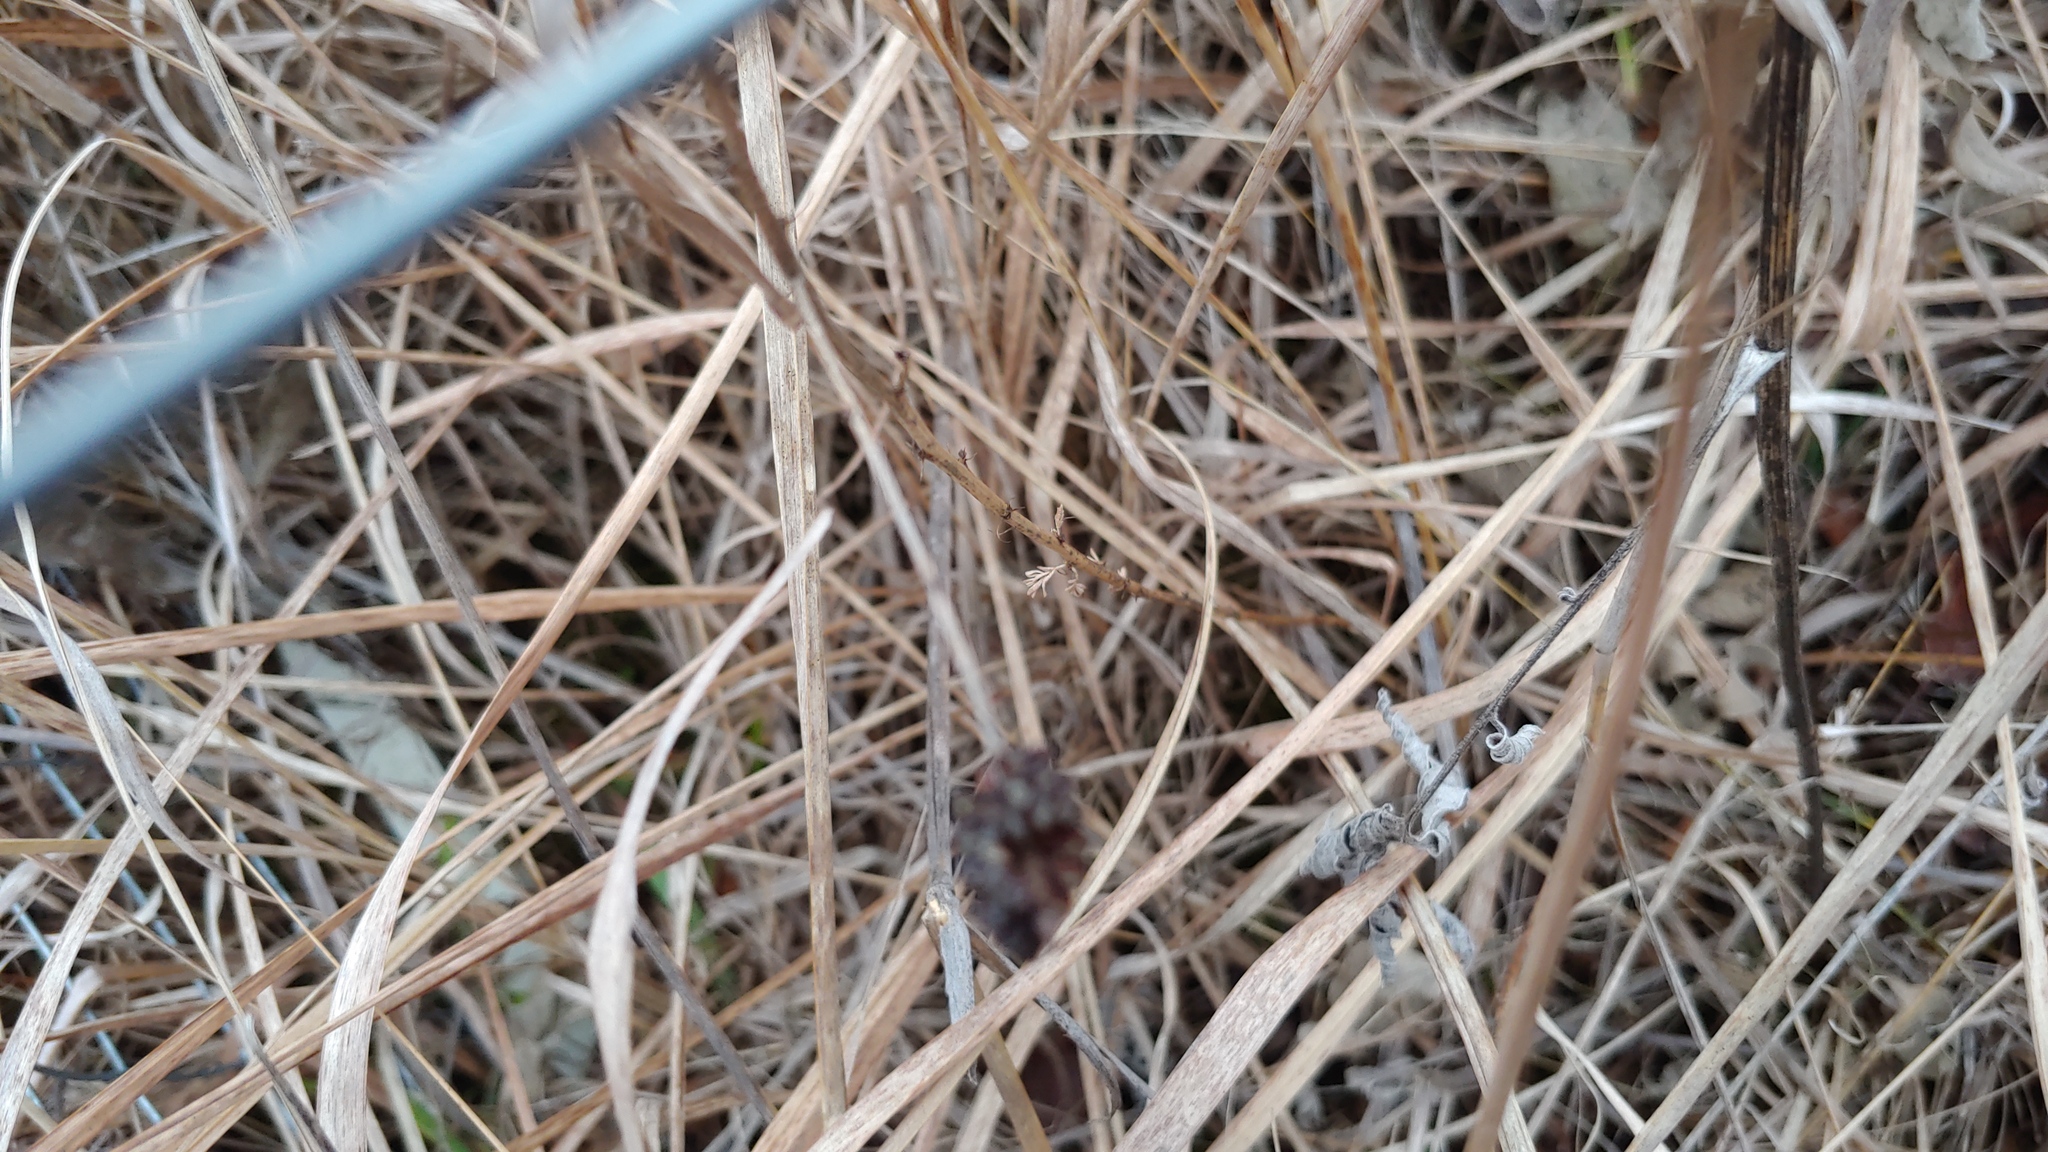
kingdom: Plantae
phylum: Tracheophyta
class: Magnoliopsida
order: Fabales
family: Fabaceae
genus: Dalea
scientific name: Dalea foliosa
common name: Leafy prairie-clover
